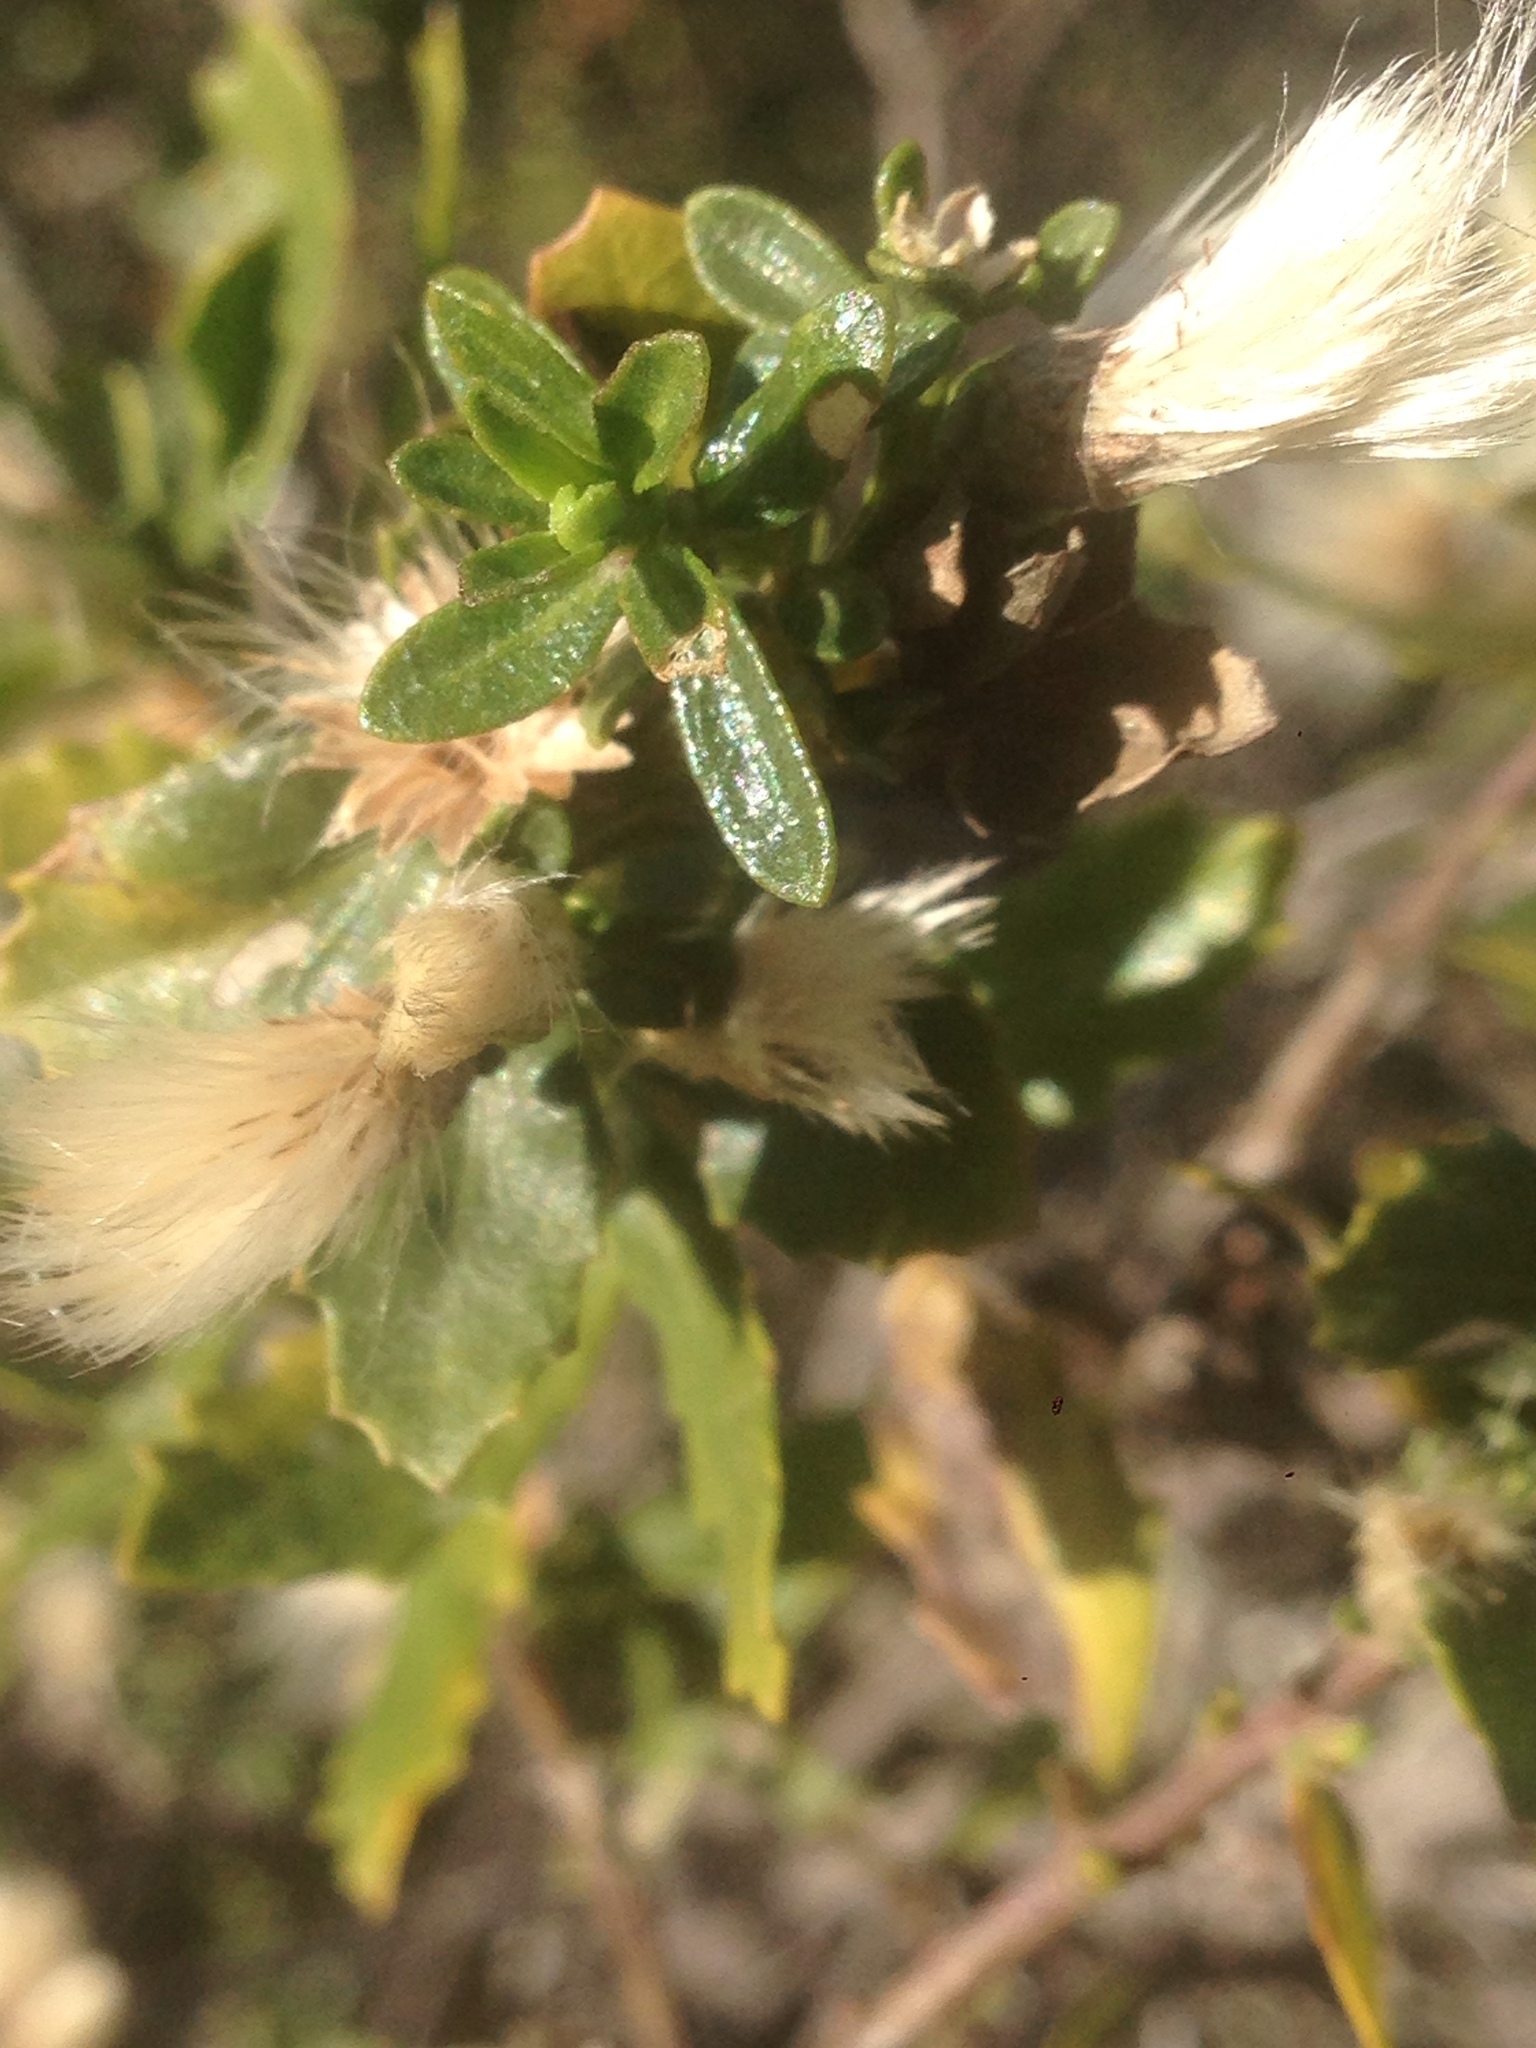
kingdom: Plantae
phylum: Tracheophyta
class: Magnoliopsida
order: Asterales
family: Asteraceae
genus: Baccharis
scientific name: Baccharis pilularis
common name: Coyotebrush
